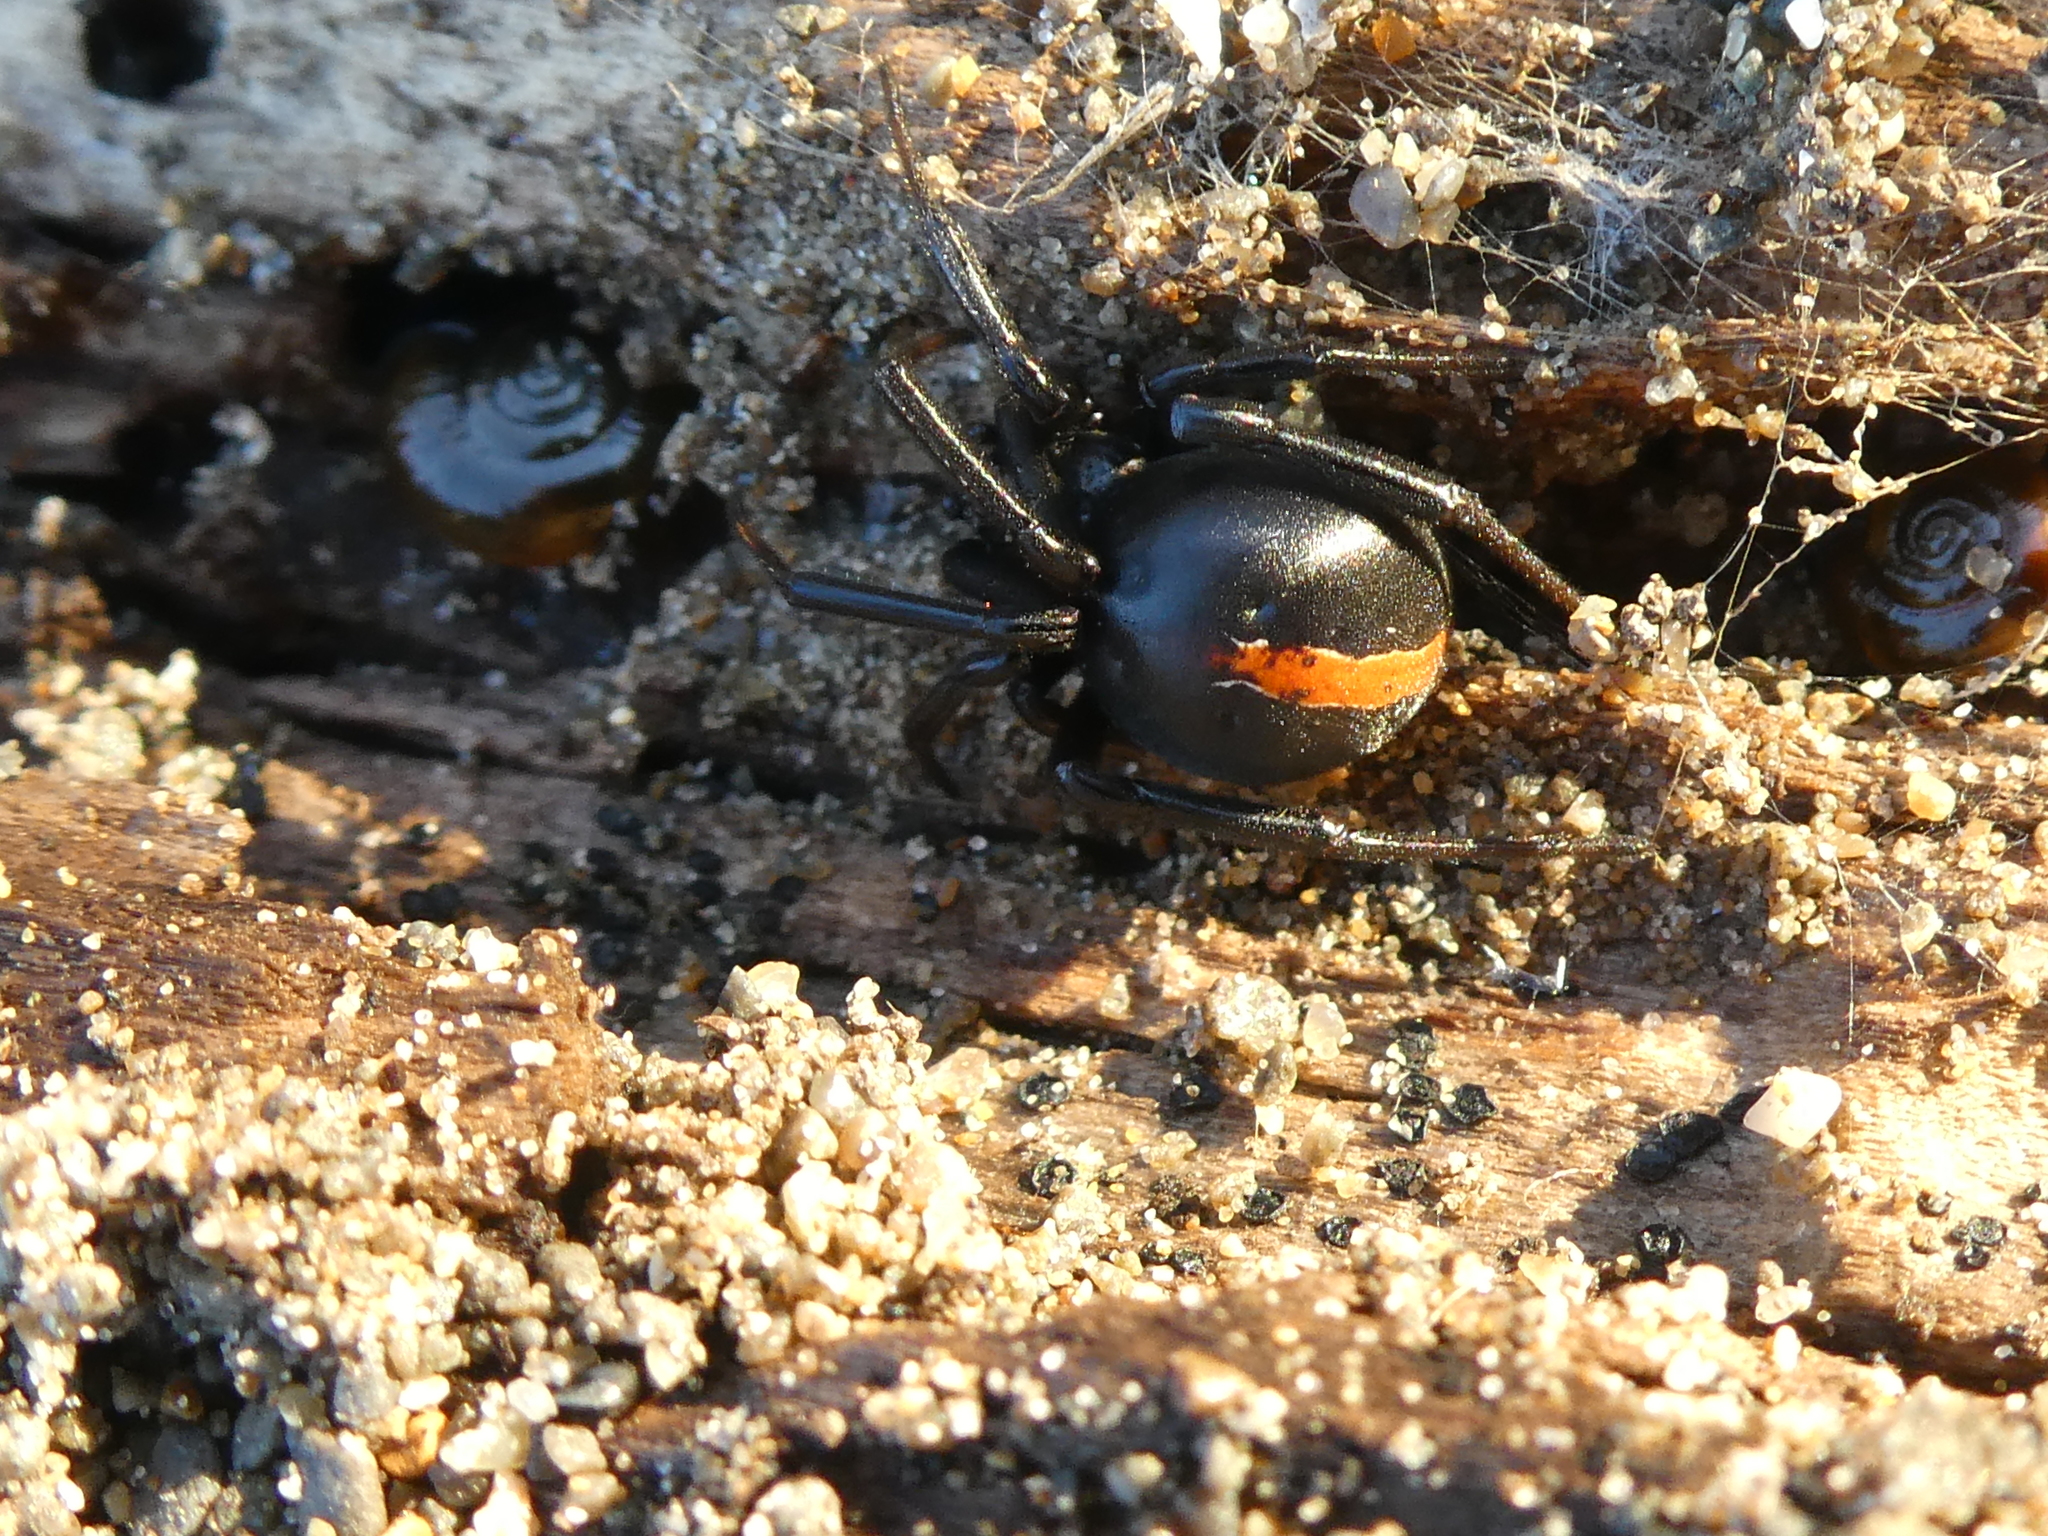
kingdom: Animalia
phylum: Arthropoda
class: Arachnida
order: Araneae
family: Theridiidae
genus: Latrodectus
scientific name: Latrodectus katipo
